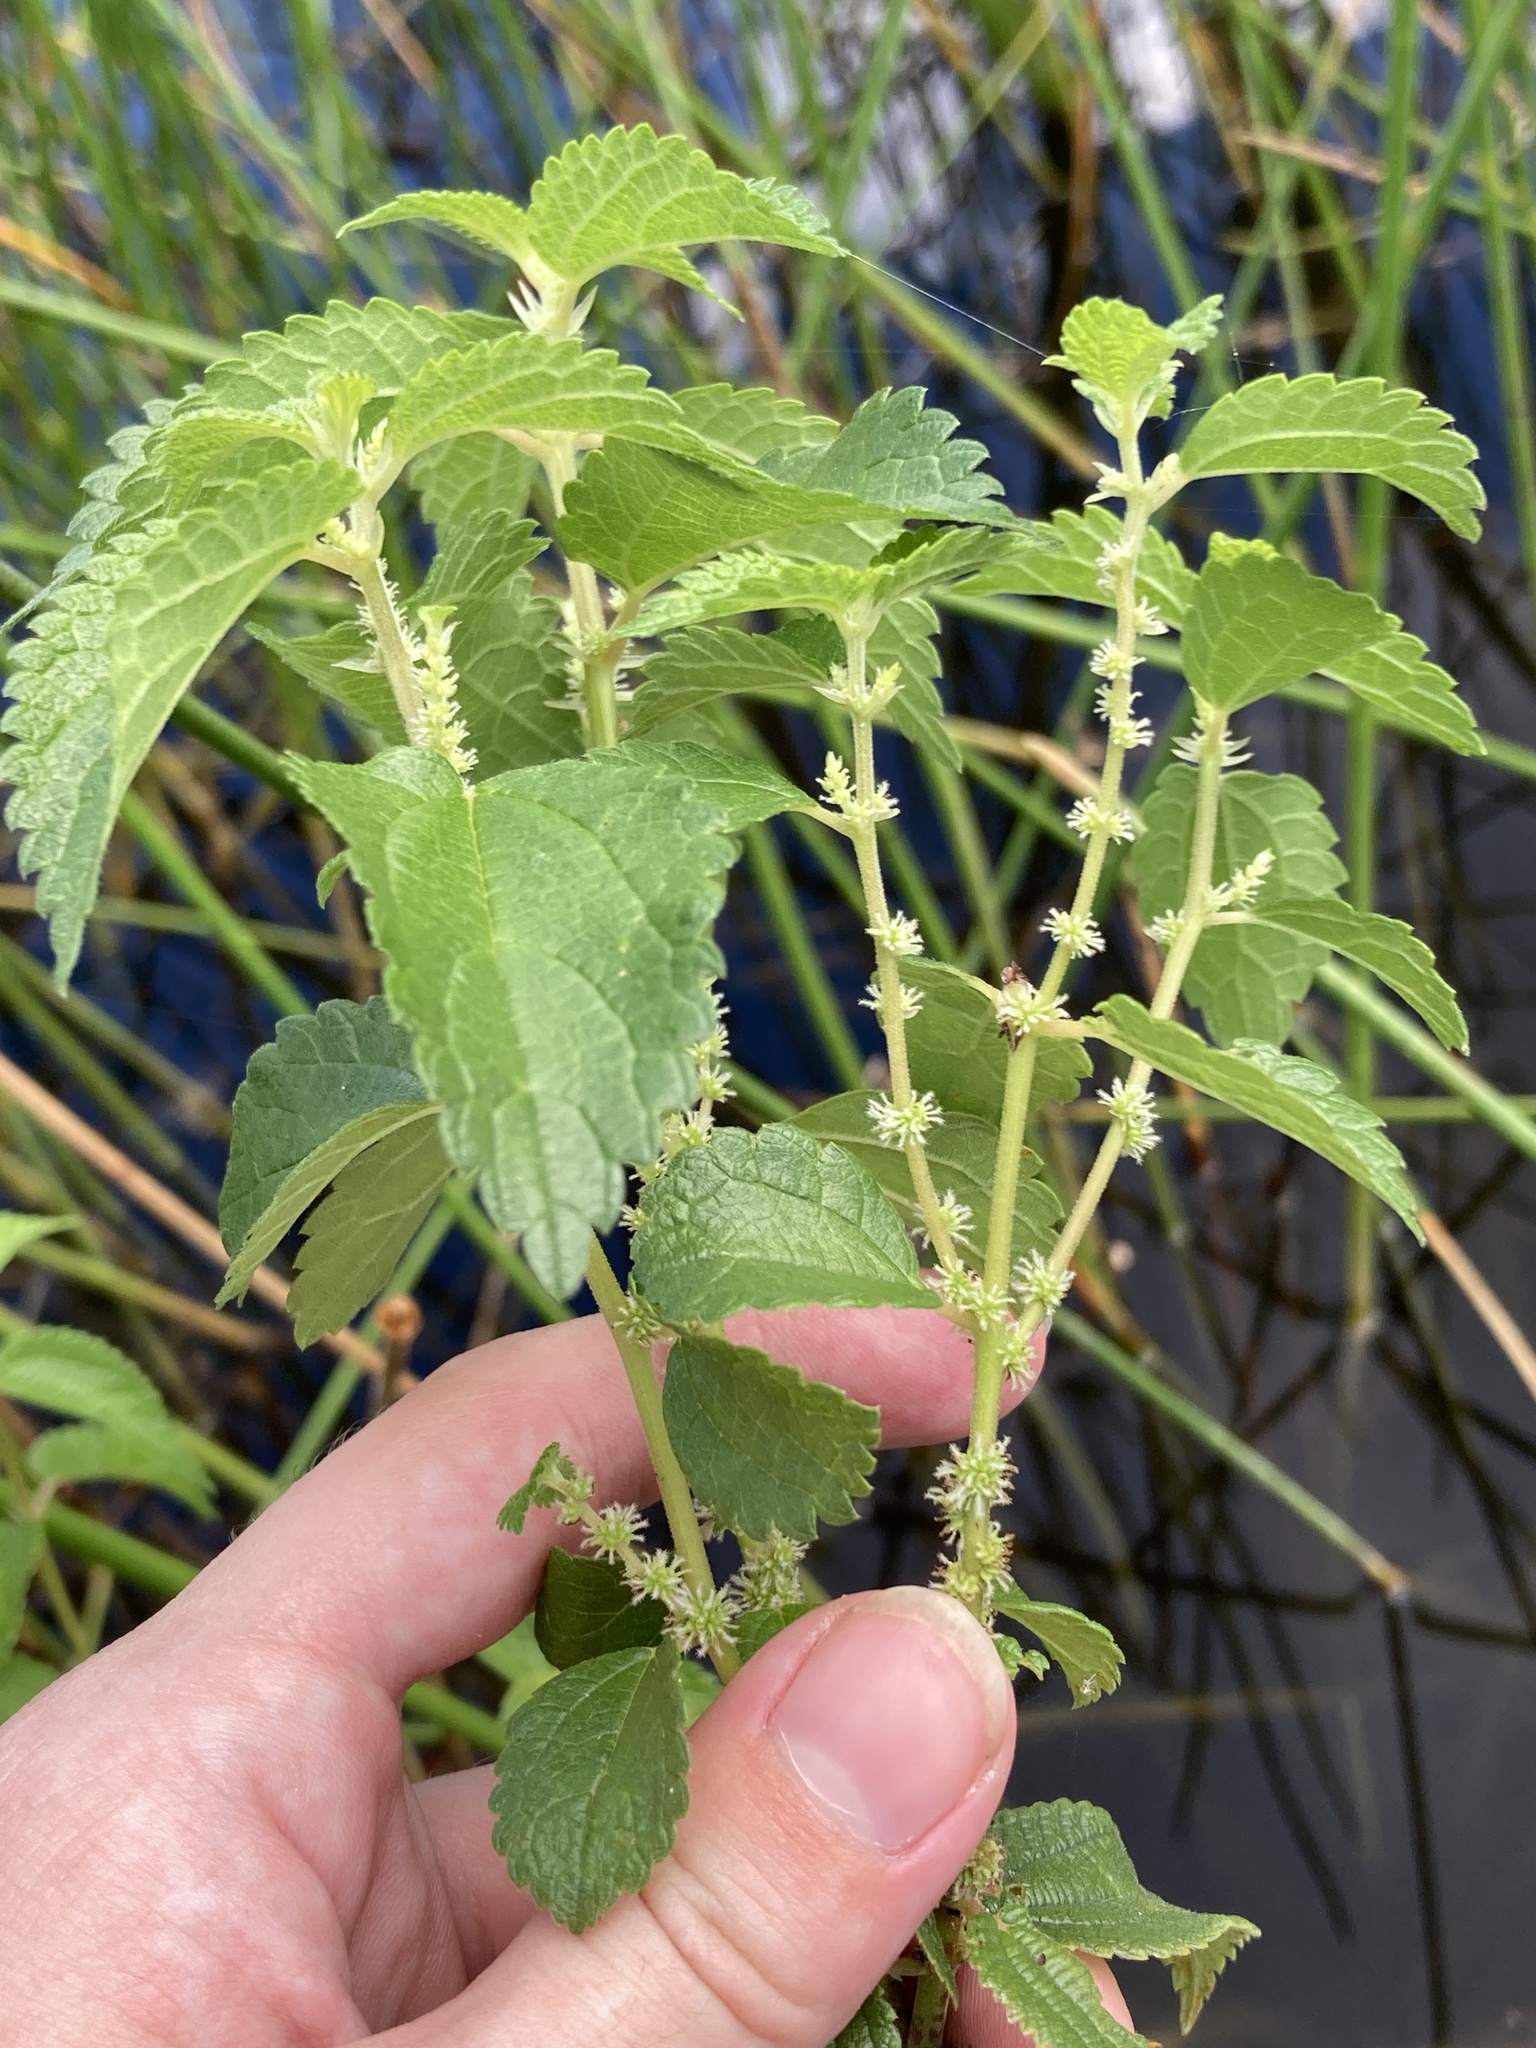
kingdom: Plantae
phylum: Tracheophyta
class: Magnoliopsida
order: Rosales
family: Urticaceae
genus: Boehmeria
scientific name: Boehmeria cylindrica
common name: Bog-hemp
